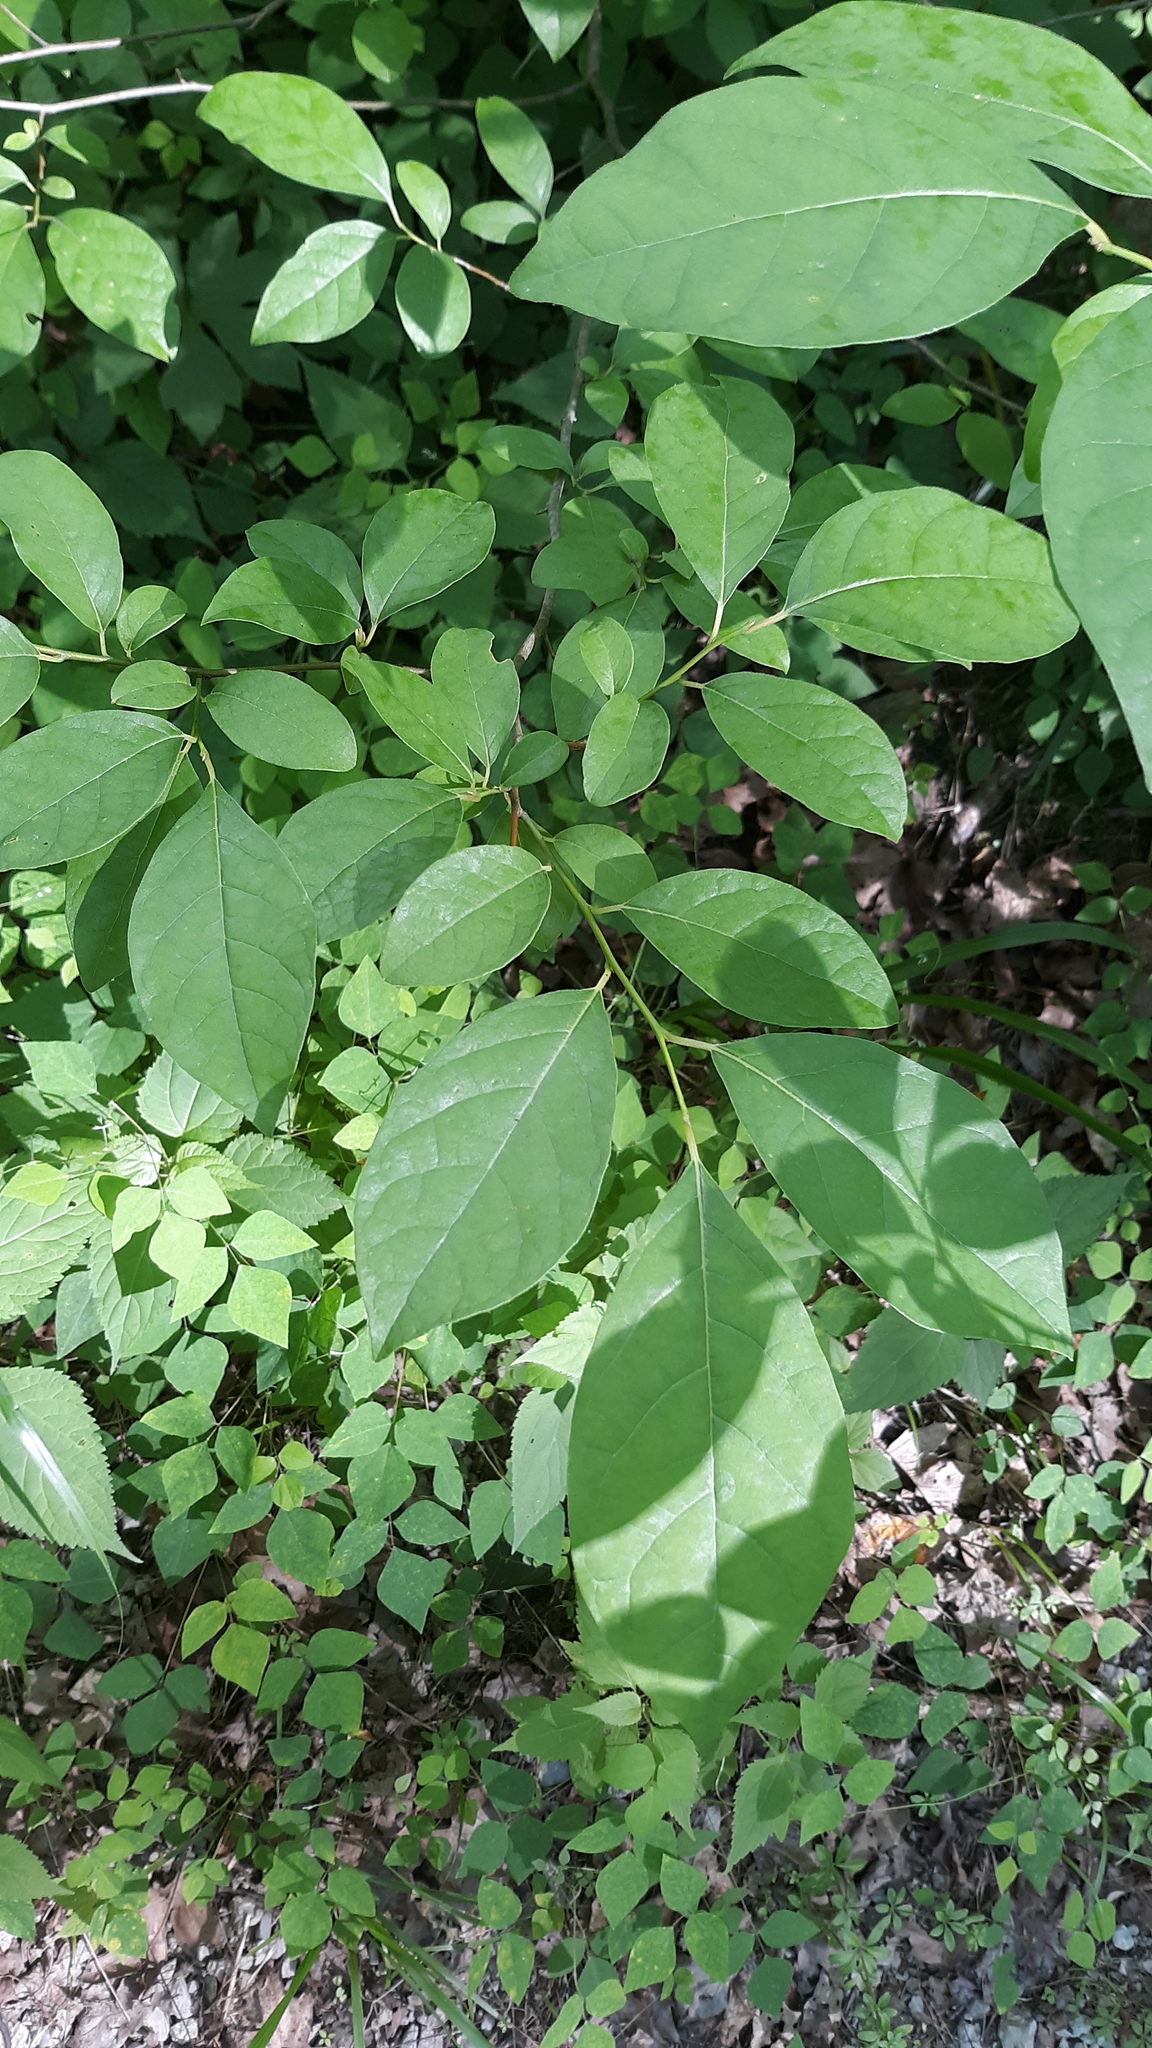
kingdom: Plantae
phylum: Tracheophyta
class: Magnoliopsida
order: Laurales
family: Lauraceae
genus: Lindera
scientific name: Lindera benzoin
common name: Spicebush
